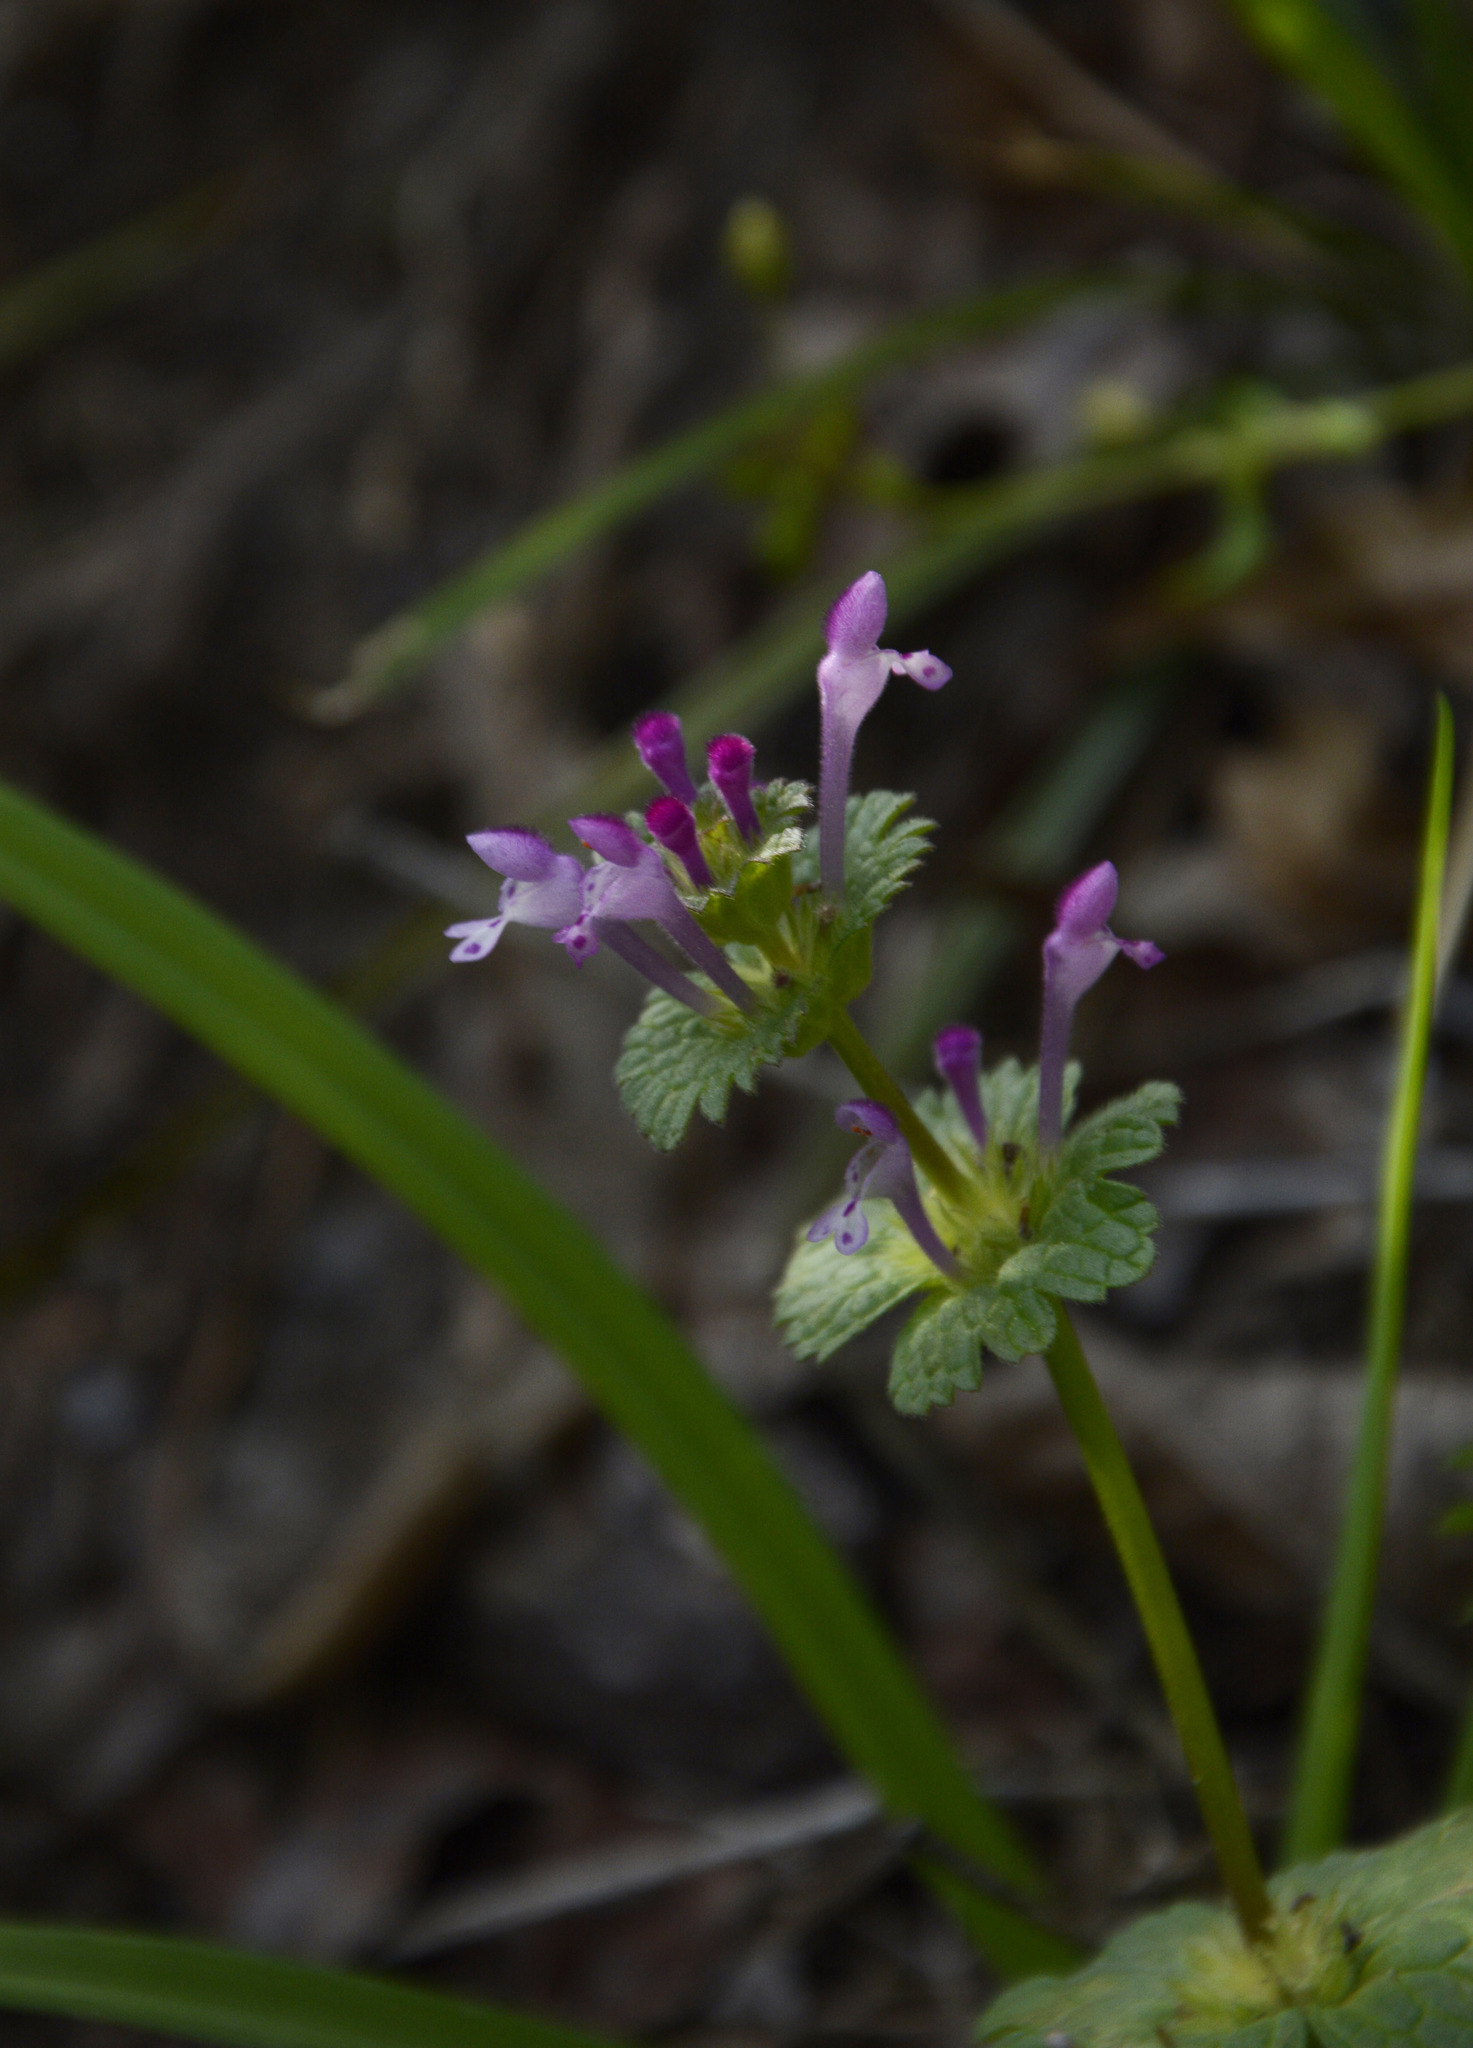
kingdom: Plantae
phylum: Tracheophyta
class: Magnoliopsida
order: Lamiales
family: Lamiaceae
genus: Lamium
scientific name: Lamium amplexicaule
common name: Henbit dead-nettle
